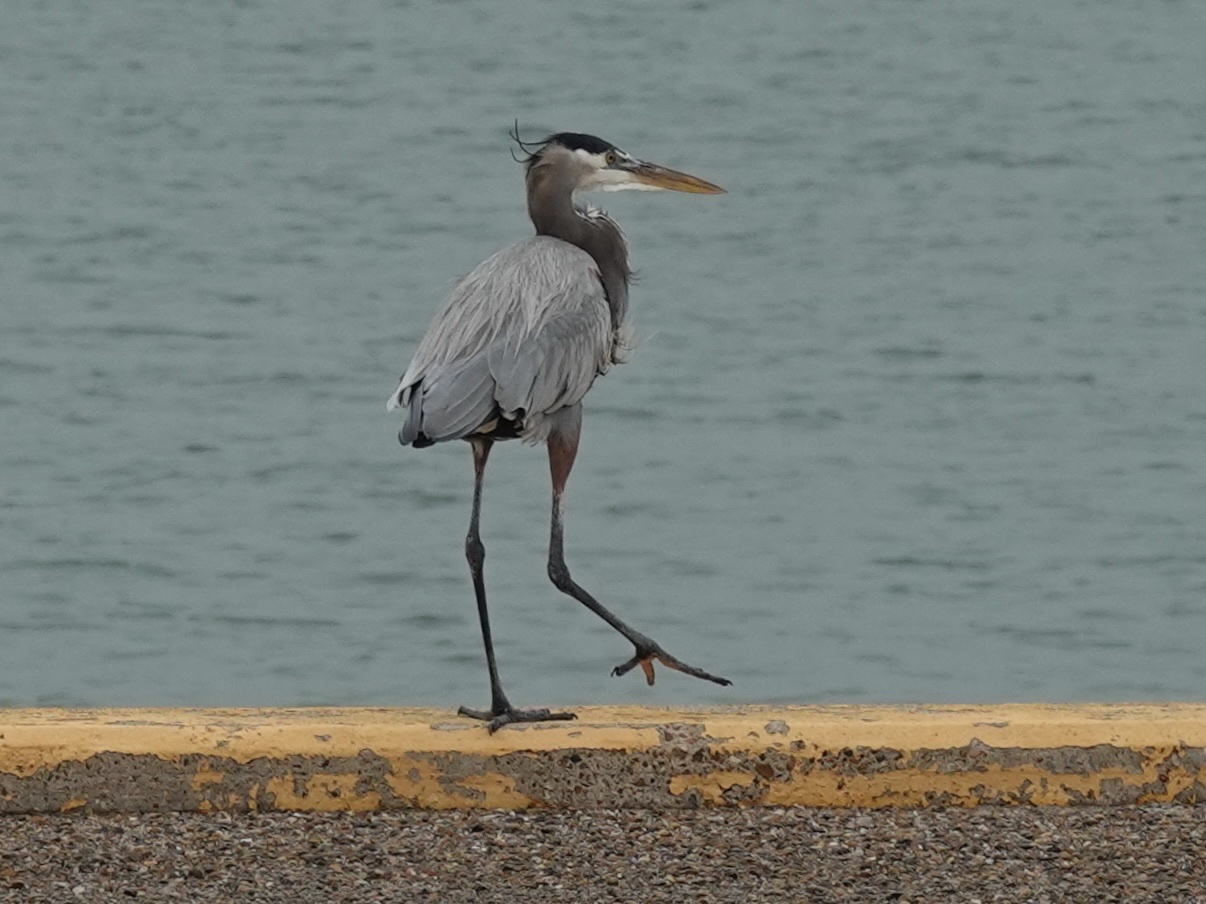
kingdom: Animalia
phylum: Chordata
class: Aves
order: Pelecaniformes
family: Ardeidae
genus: Ardea
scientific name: Ardea herodias
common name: Great blue heron
